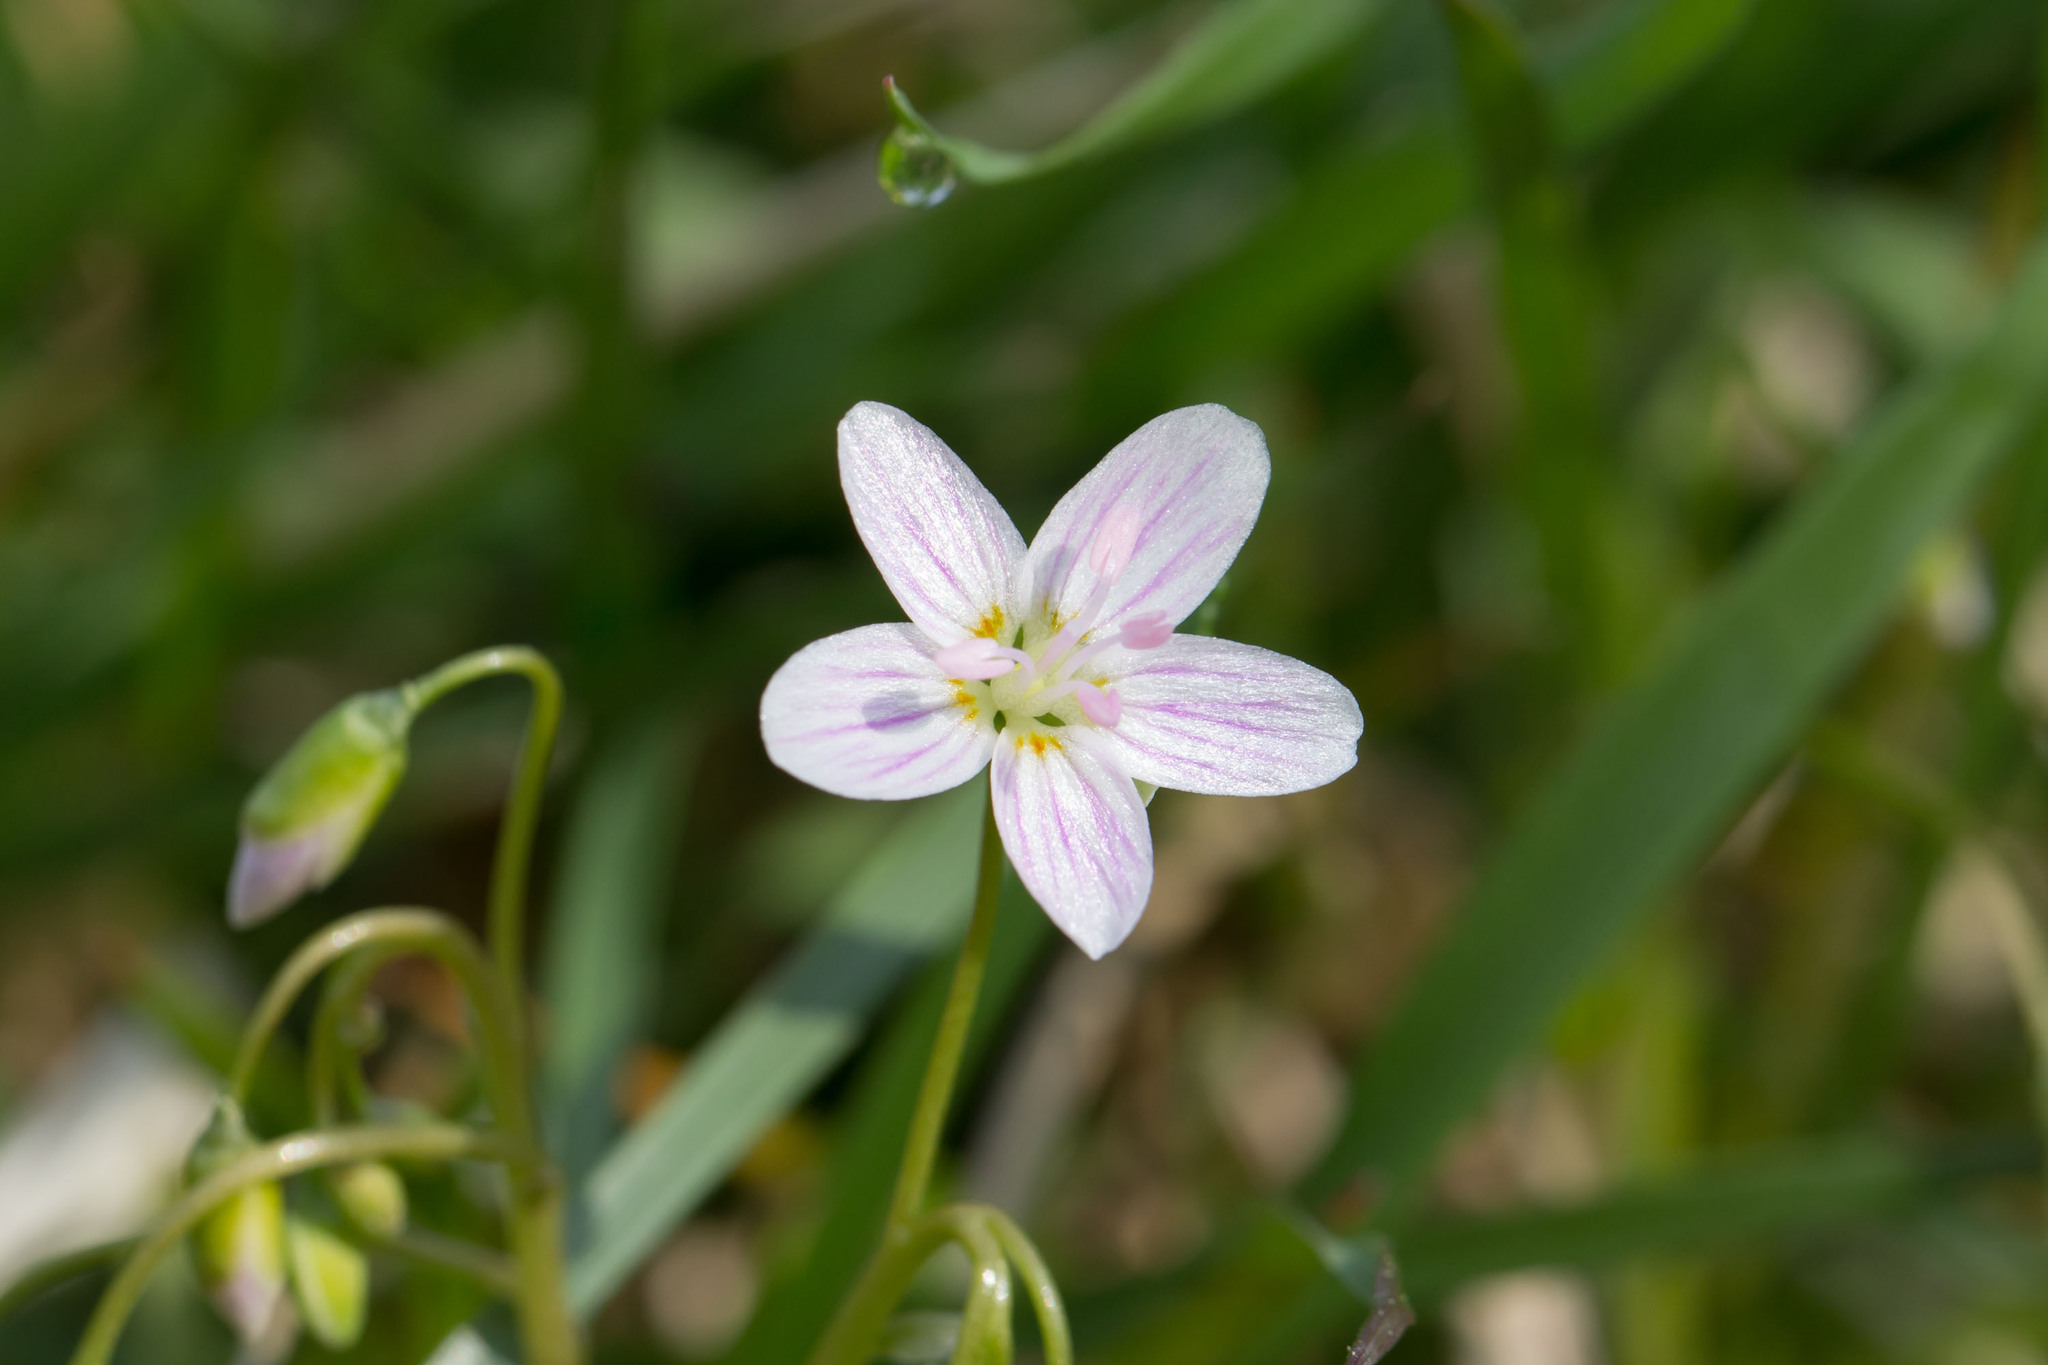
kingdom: Plantae
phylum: Tracheophyta
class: Magnoliopsida
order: Caryophyllales
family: Montiaceae
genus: Claytonia
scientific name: Claytonia virginica
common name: Virginia springbeauty
